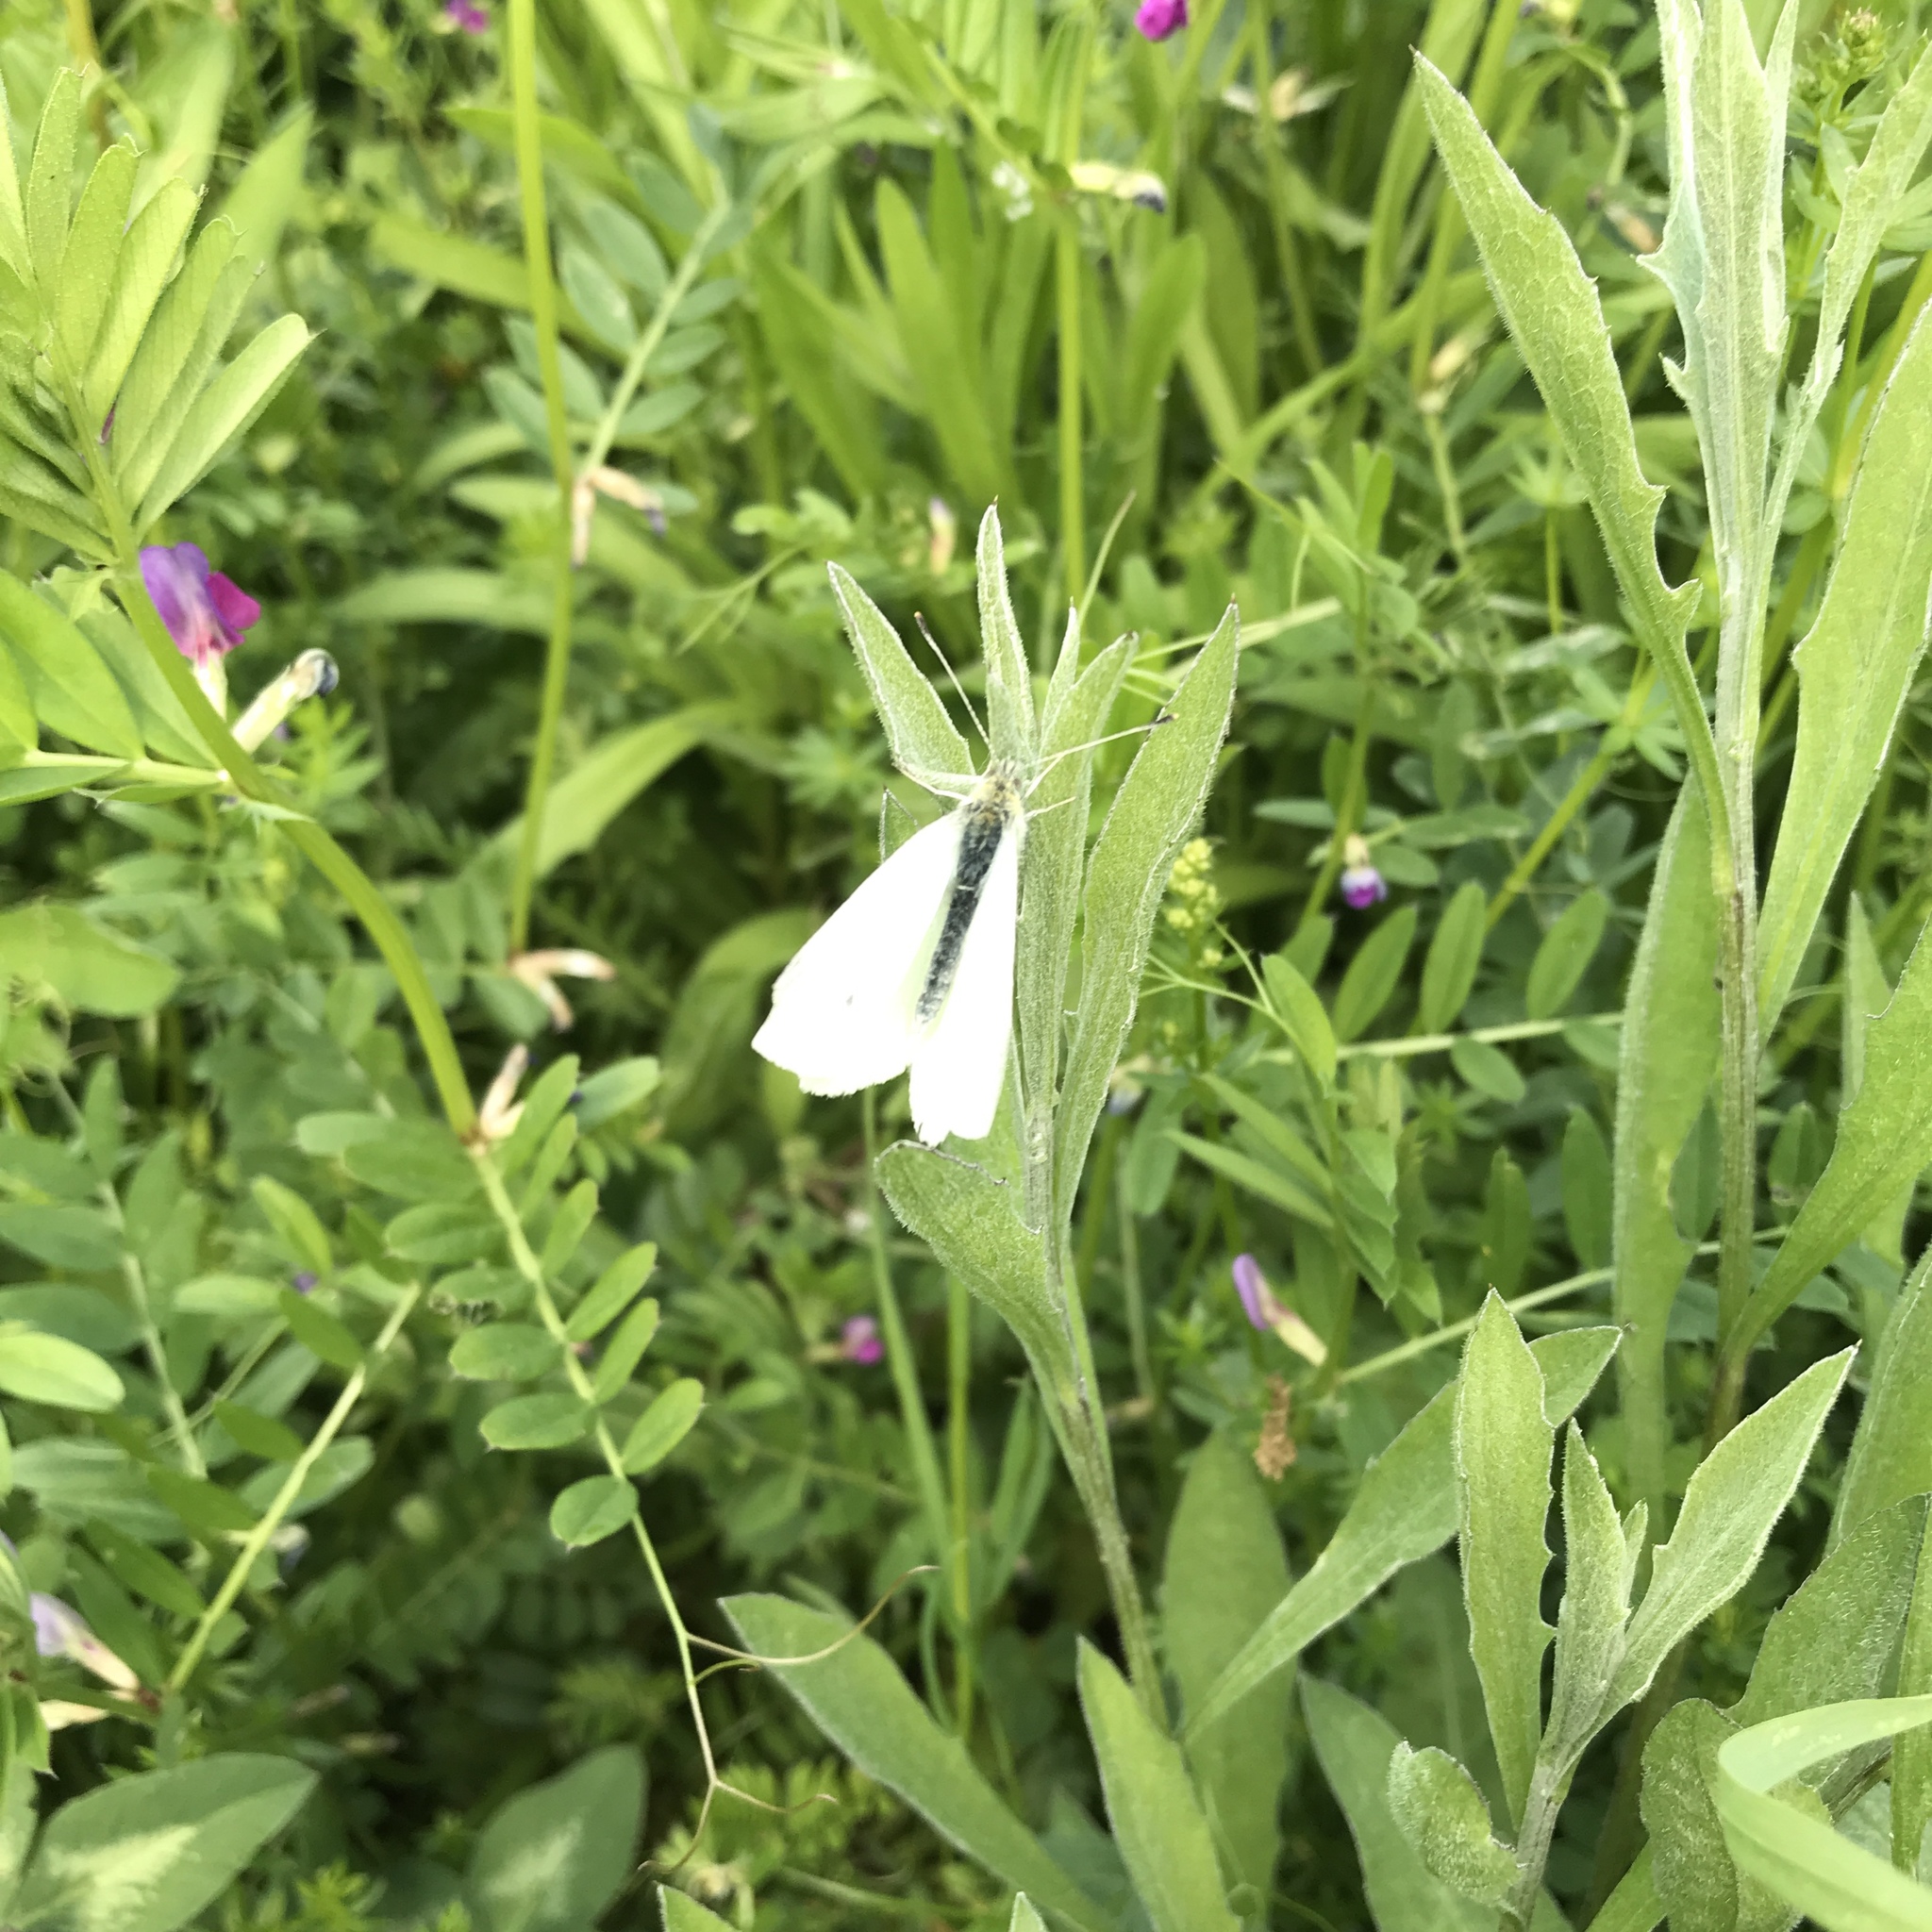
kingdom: Animalia
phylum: Arthropoda
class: Insecta
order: Lepidoptera
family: Pieridae
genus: Pieris
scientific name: Pieris rapae
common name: Small white
